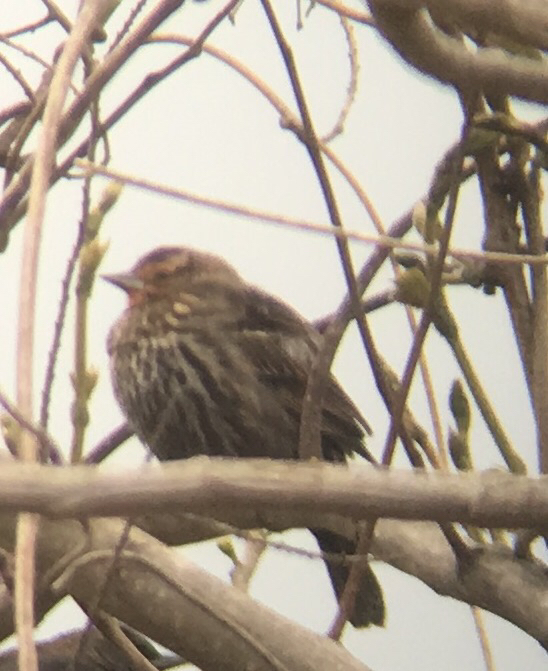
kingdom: Animalia
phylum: Chordata
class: Aves
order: Passeriformes
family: Icteridae
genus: Agelaius
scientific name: Agelaius phoeniceus
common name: Red-winged blackbird
